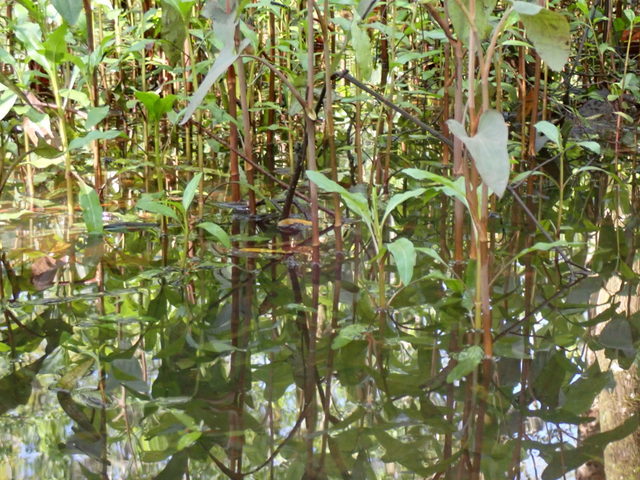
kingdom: Plantae
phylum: Tracheophyta
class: Magnoliopsida
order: Piperales
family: Saururaceae
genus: Saururus
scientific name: Saururus cernuus
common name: Lizard's-tail
